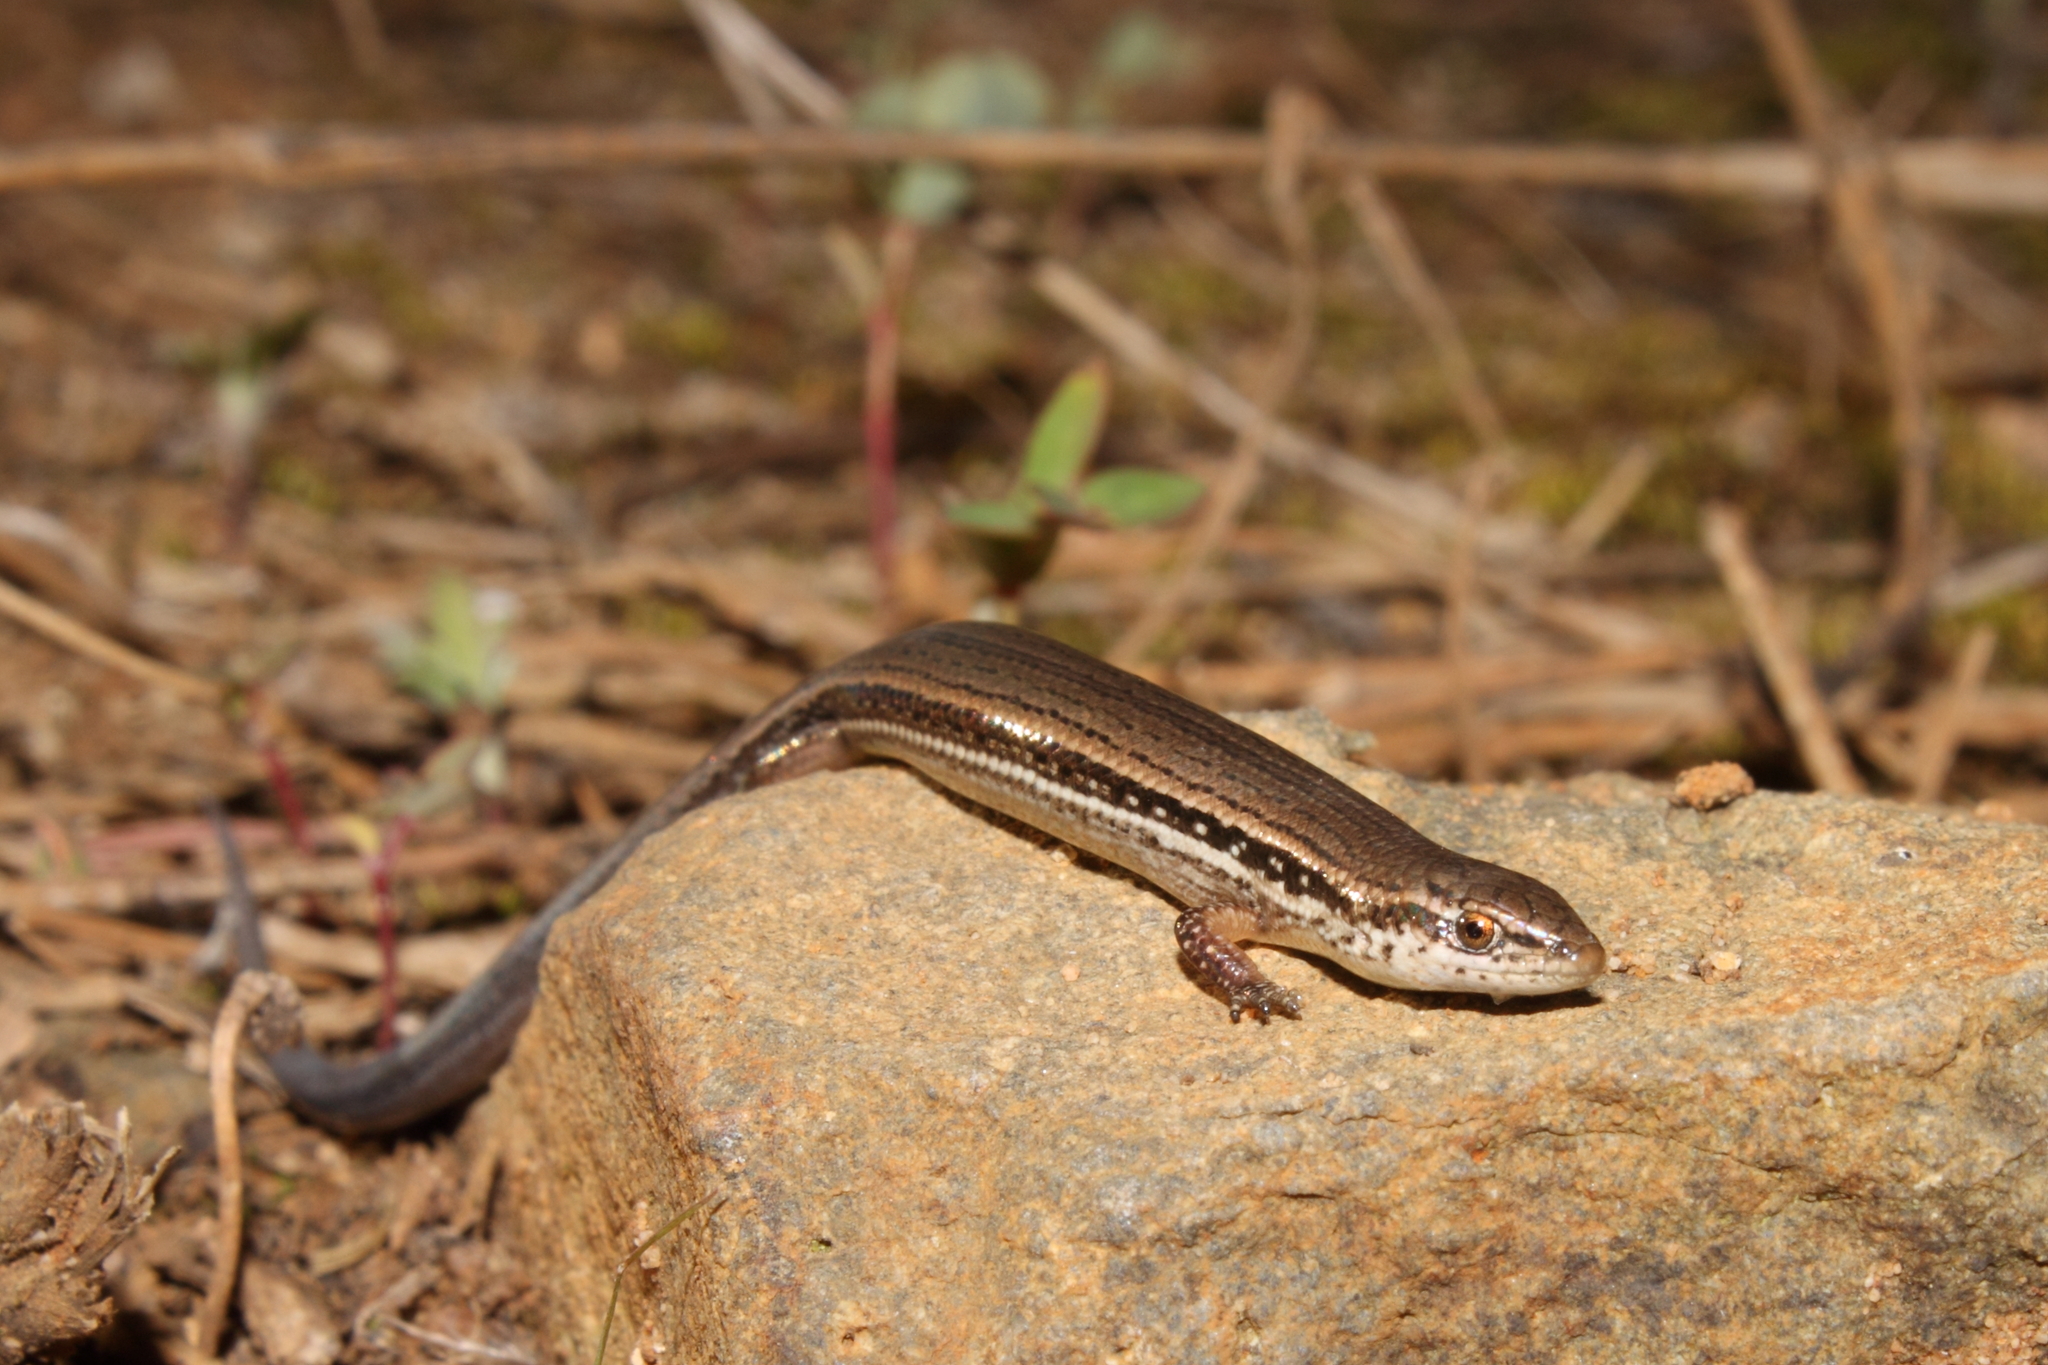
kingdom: Animalia
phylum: Chordata
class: Squamata
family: Scincidae
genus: Panaspis
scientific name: Panaspis wahlbergii
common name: Angolan snake-eyed skink
